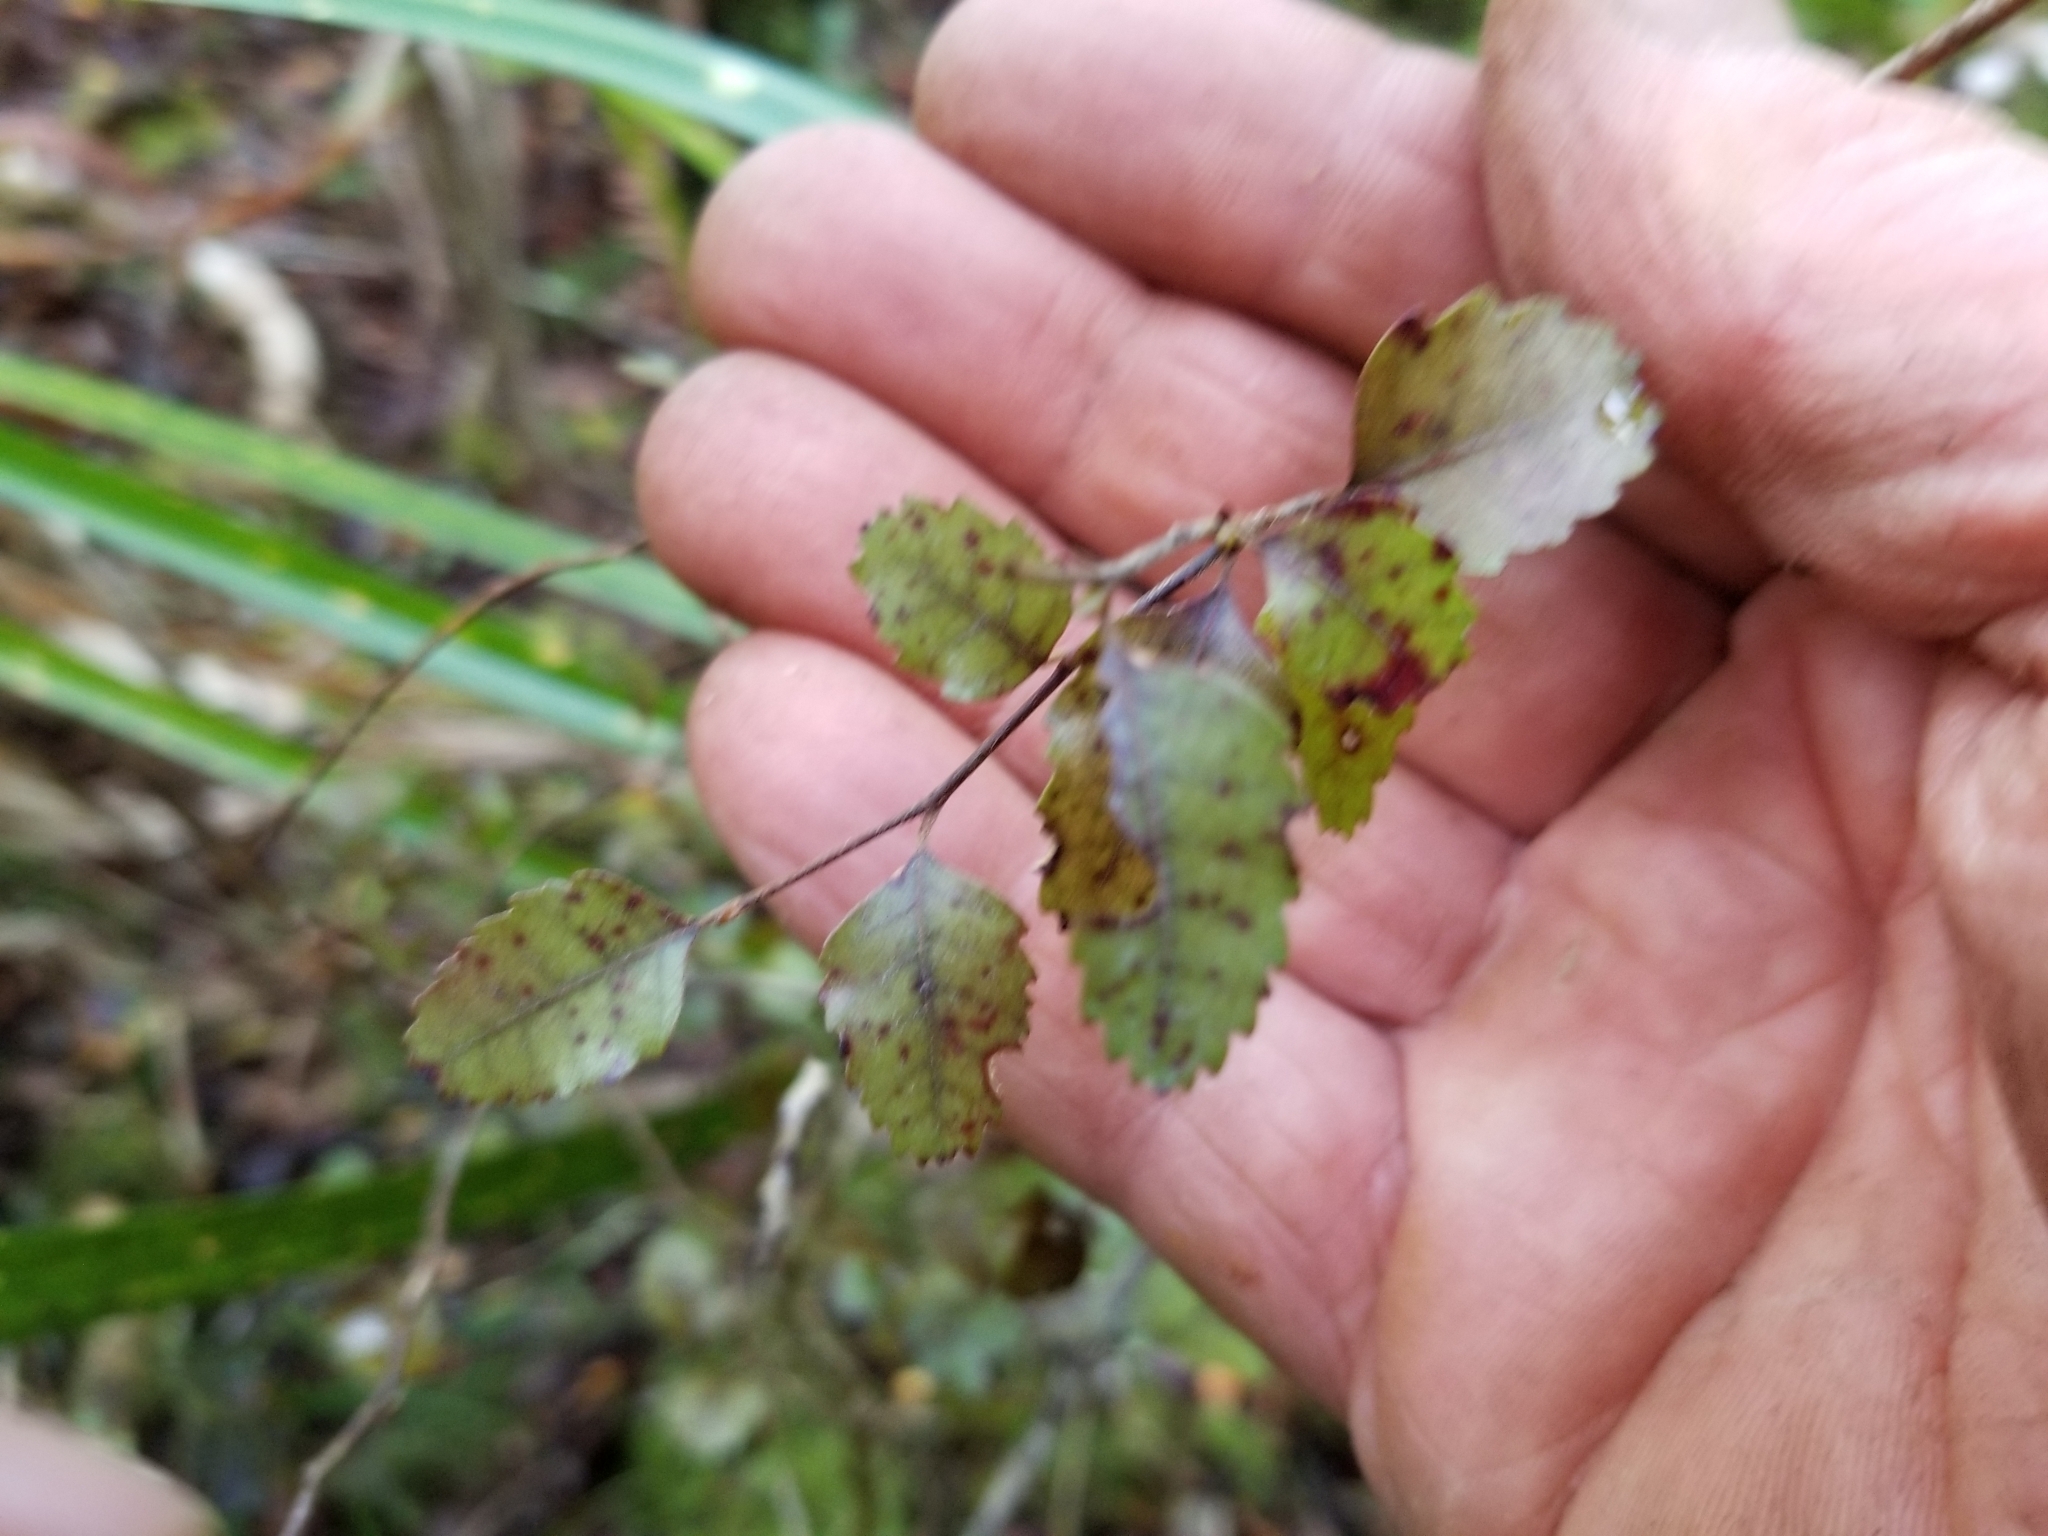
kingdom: Plantae
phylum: Tracheophyta
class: Magnoliopsida
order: Fagales
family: Nothofagaceae
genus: Nothofagus
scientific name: Nothofagus fusca
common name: Red beech
